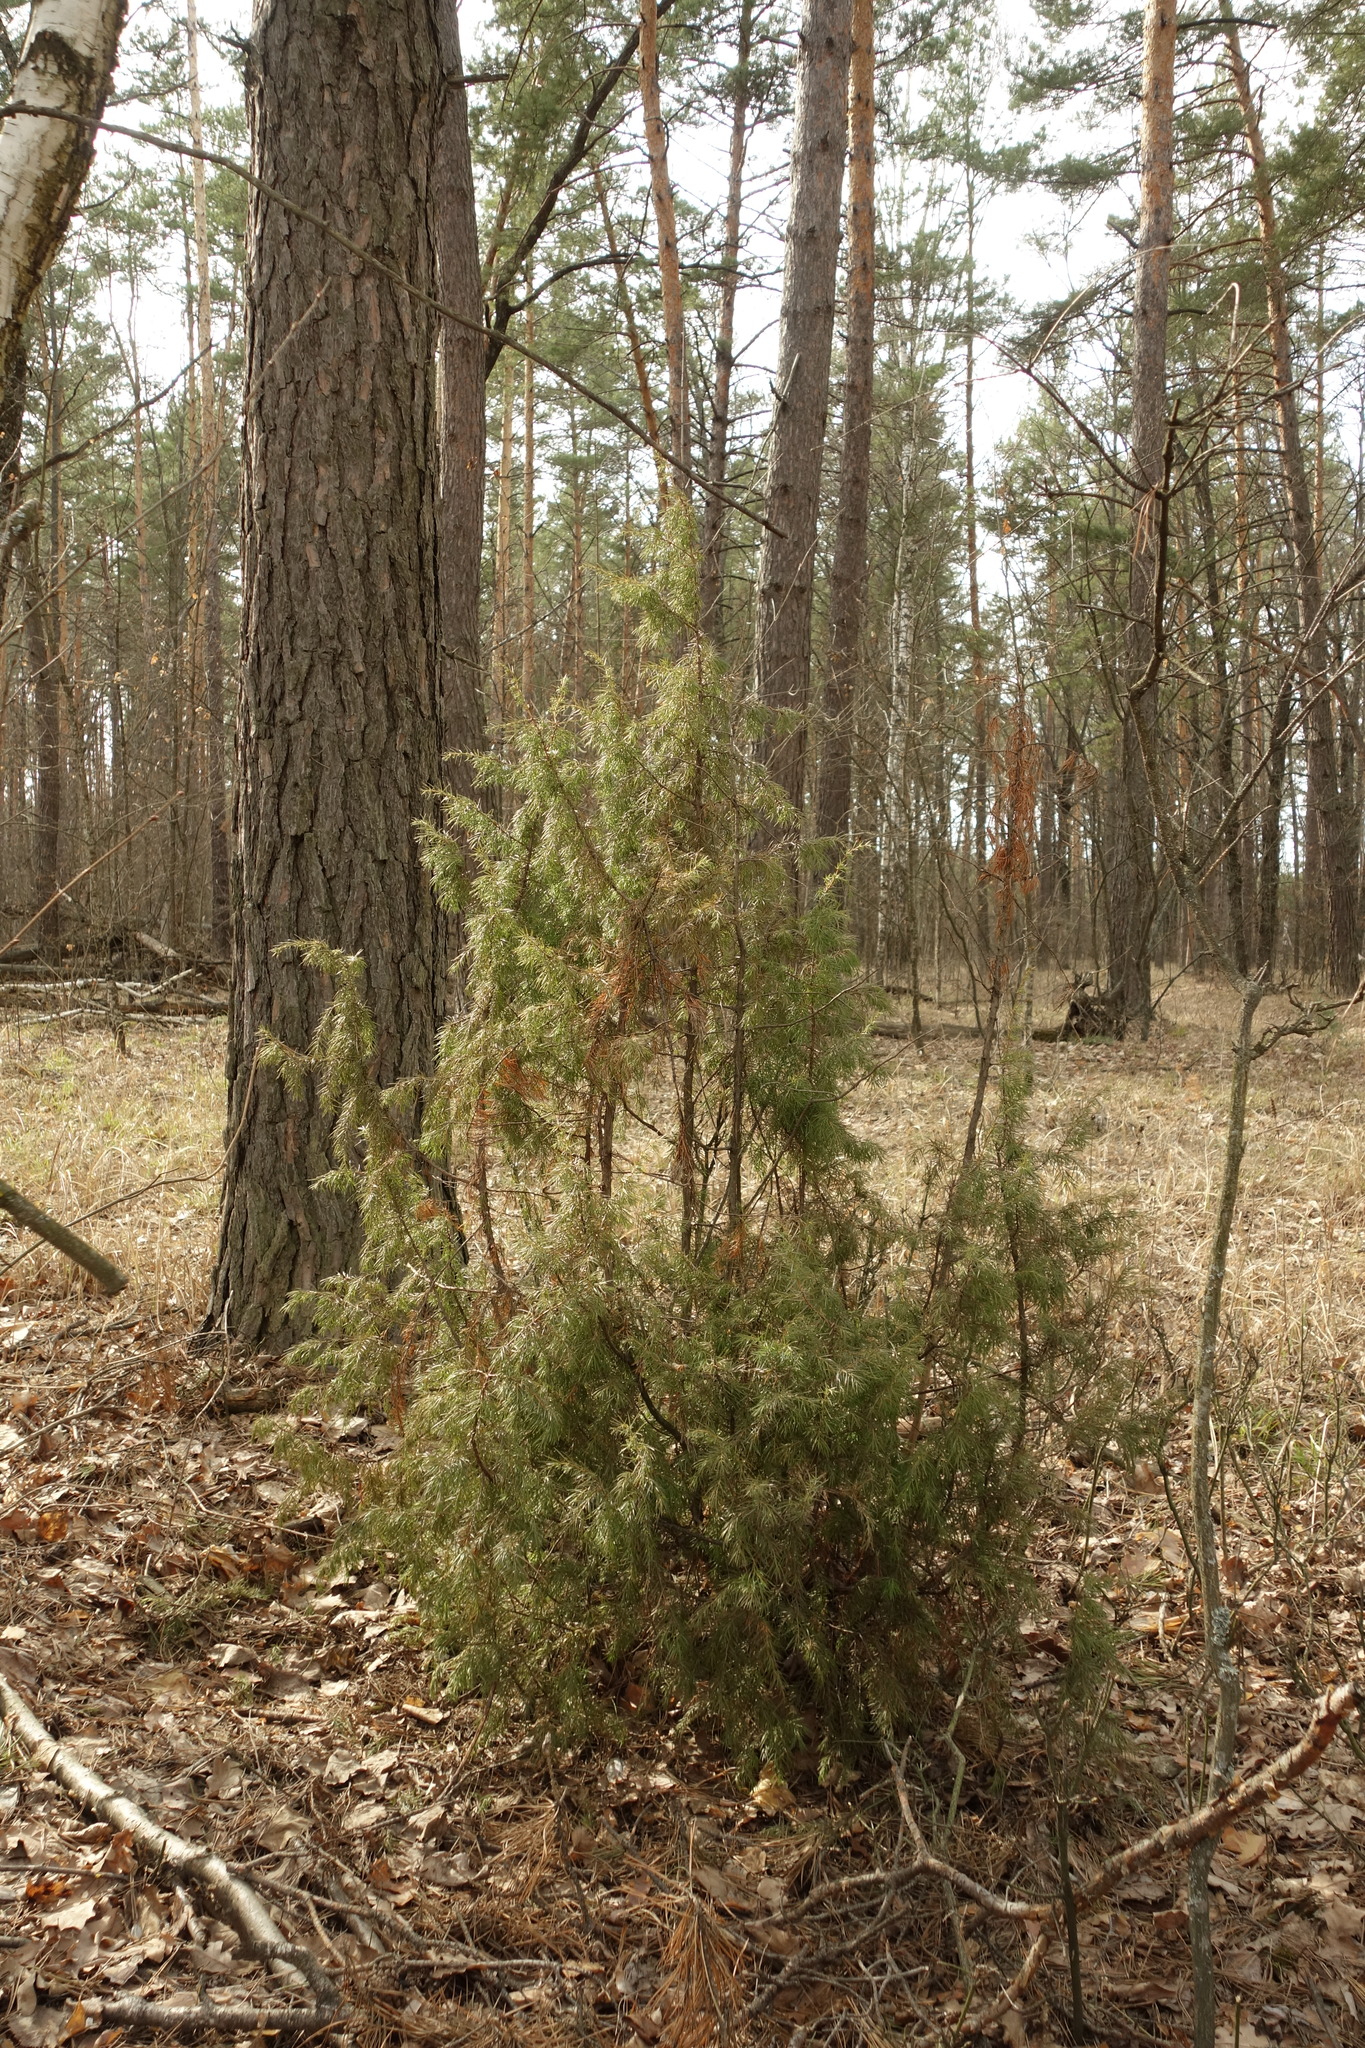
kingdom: Plantae
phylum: Tracheophyta
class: Pinopsida
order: Pinales
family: Cupressaceae
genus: Juniperus
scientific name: Juniperus communis
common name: Common juniper
